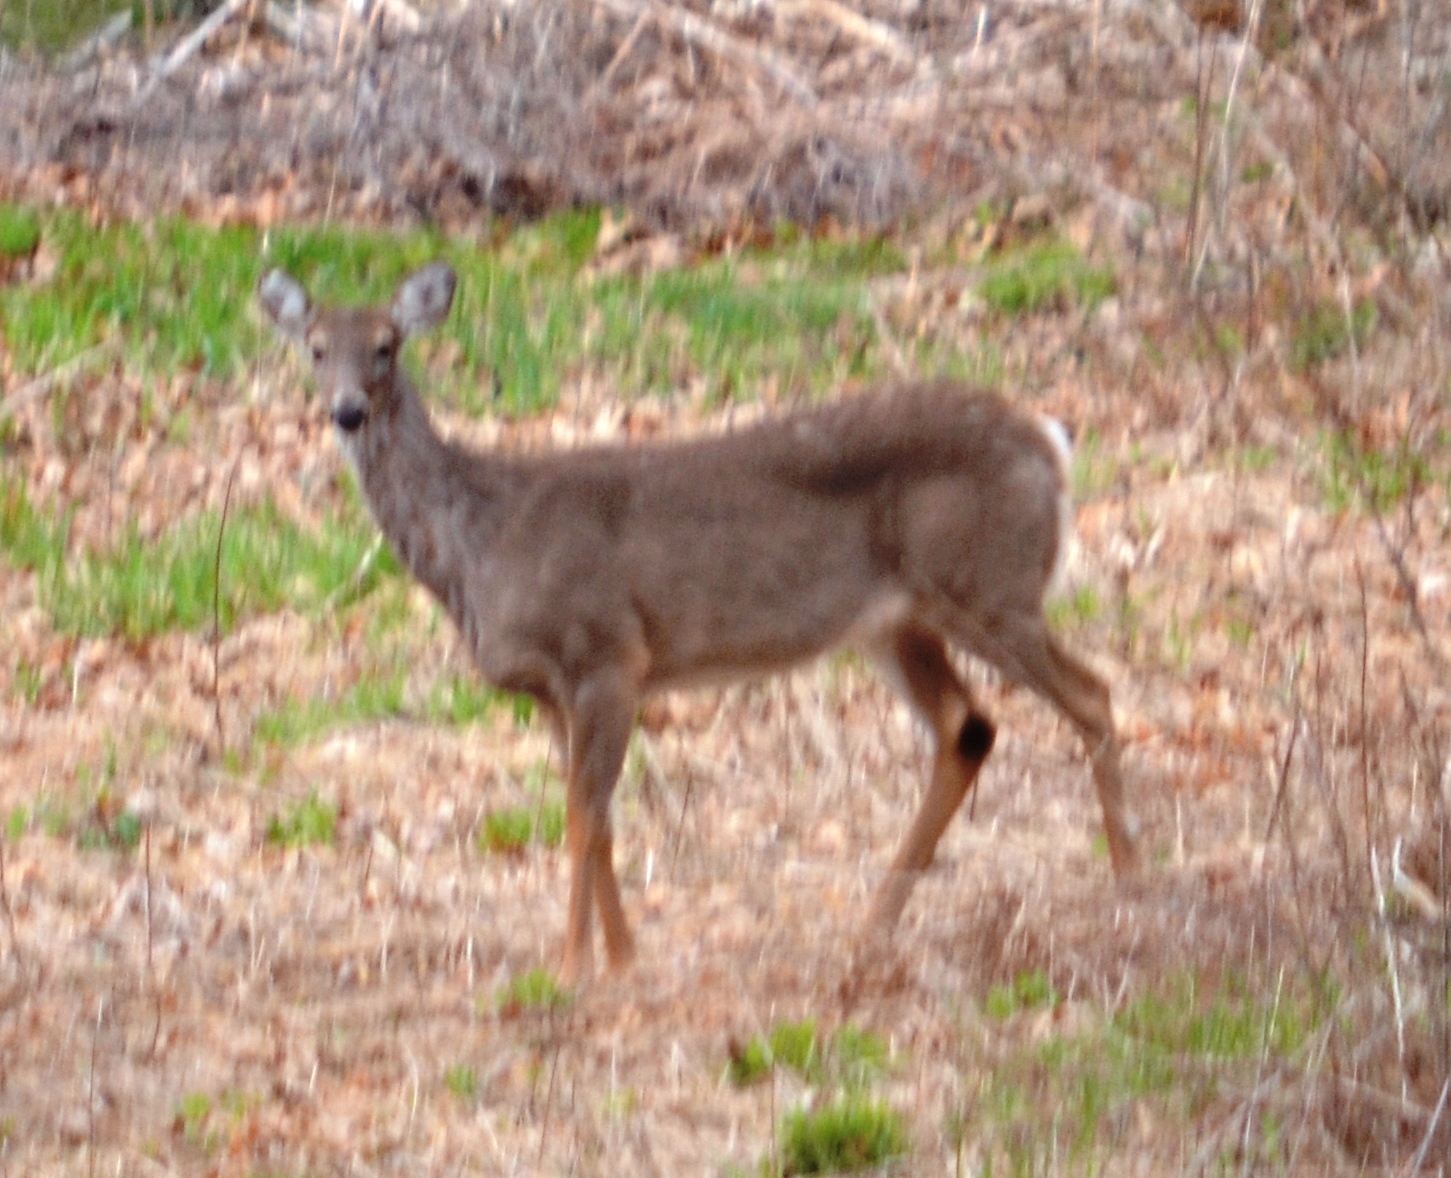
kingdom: Animalia
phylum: Chordata
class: Mammalia
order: Artiodactyla
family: Cervidae
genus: Odocoileus
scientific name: Odocoileus virginianus
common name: White-tailed deer
